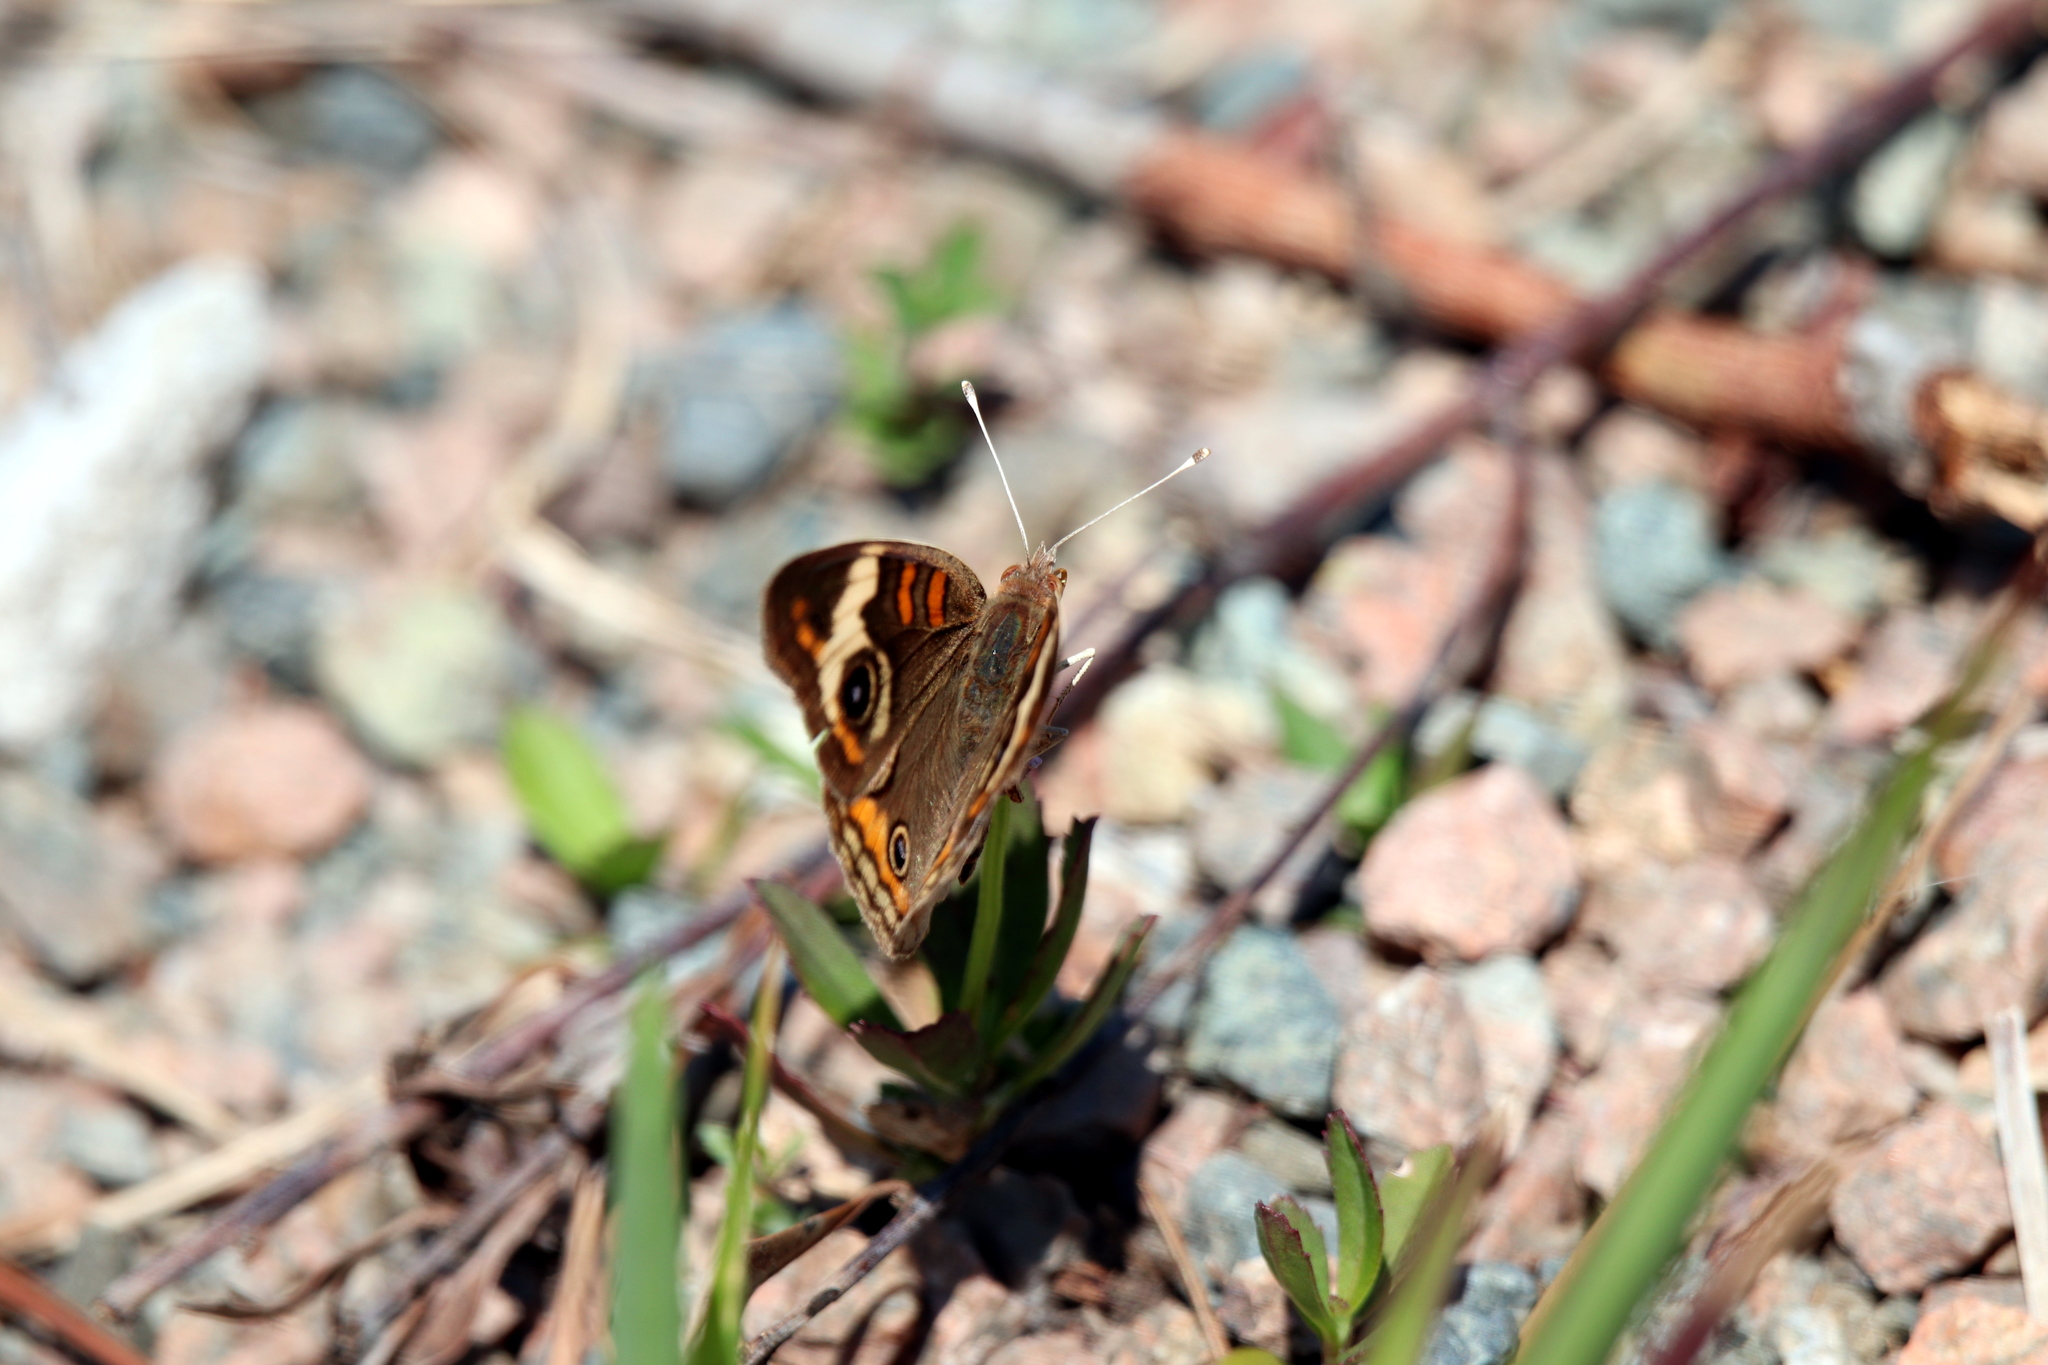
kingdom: Animalia
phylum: Arthropoda
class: Insecta
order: Lepidoptera
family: Nymphalidae
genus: Junonia
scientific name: Junonia coenia
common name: Common buckeye
